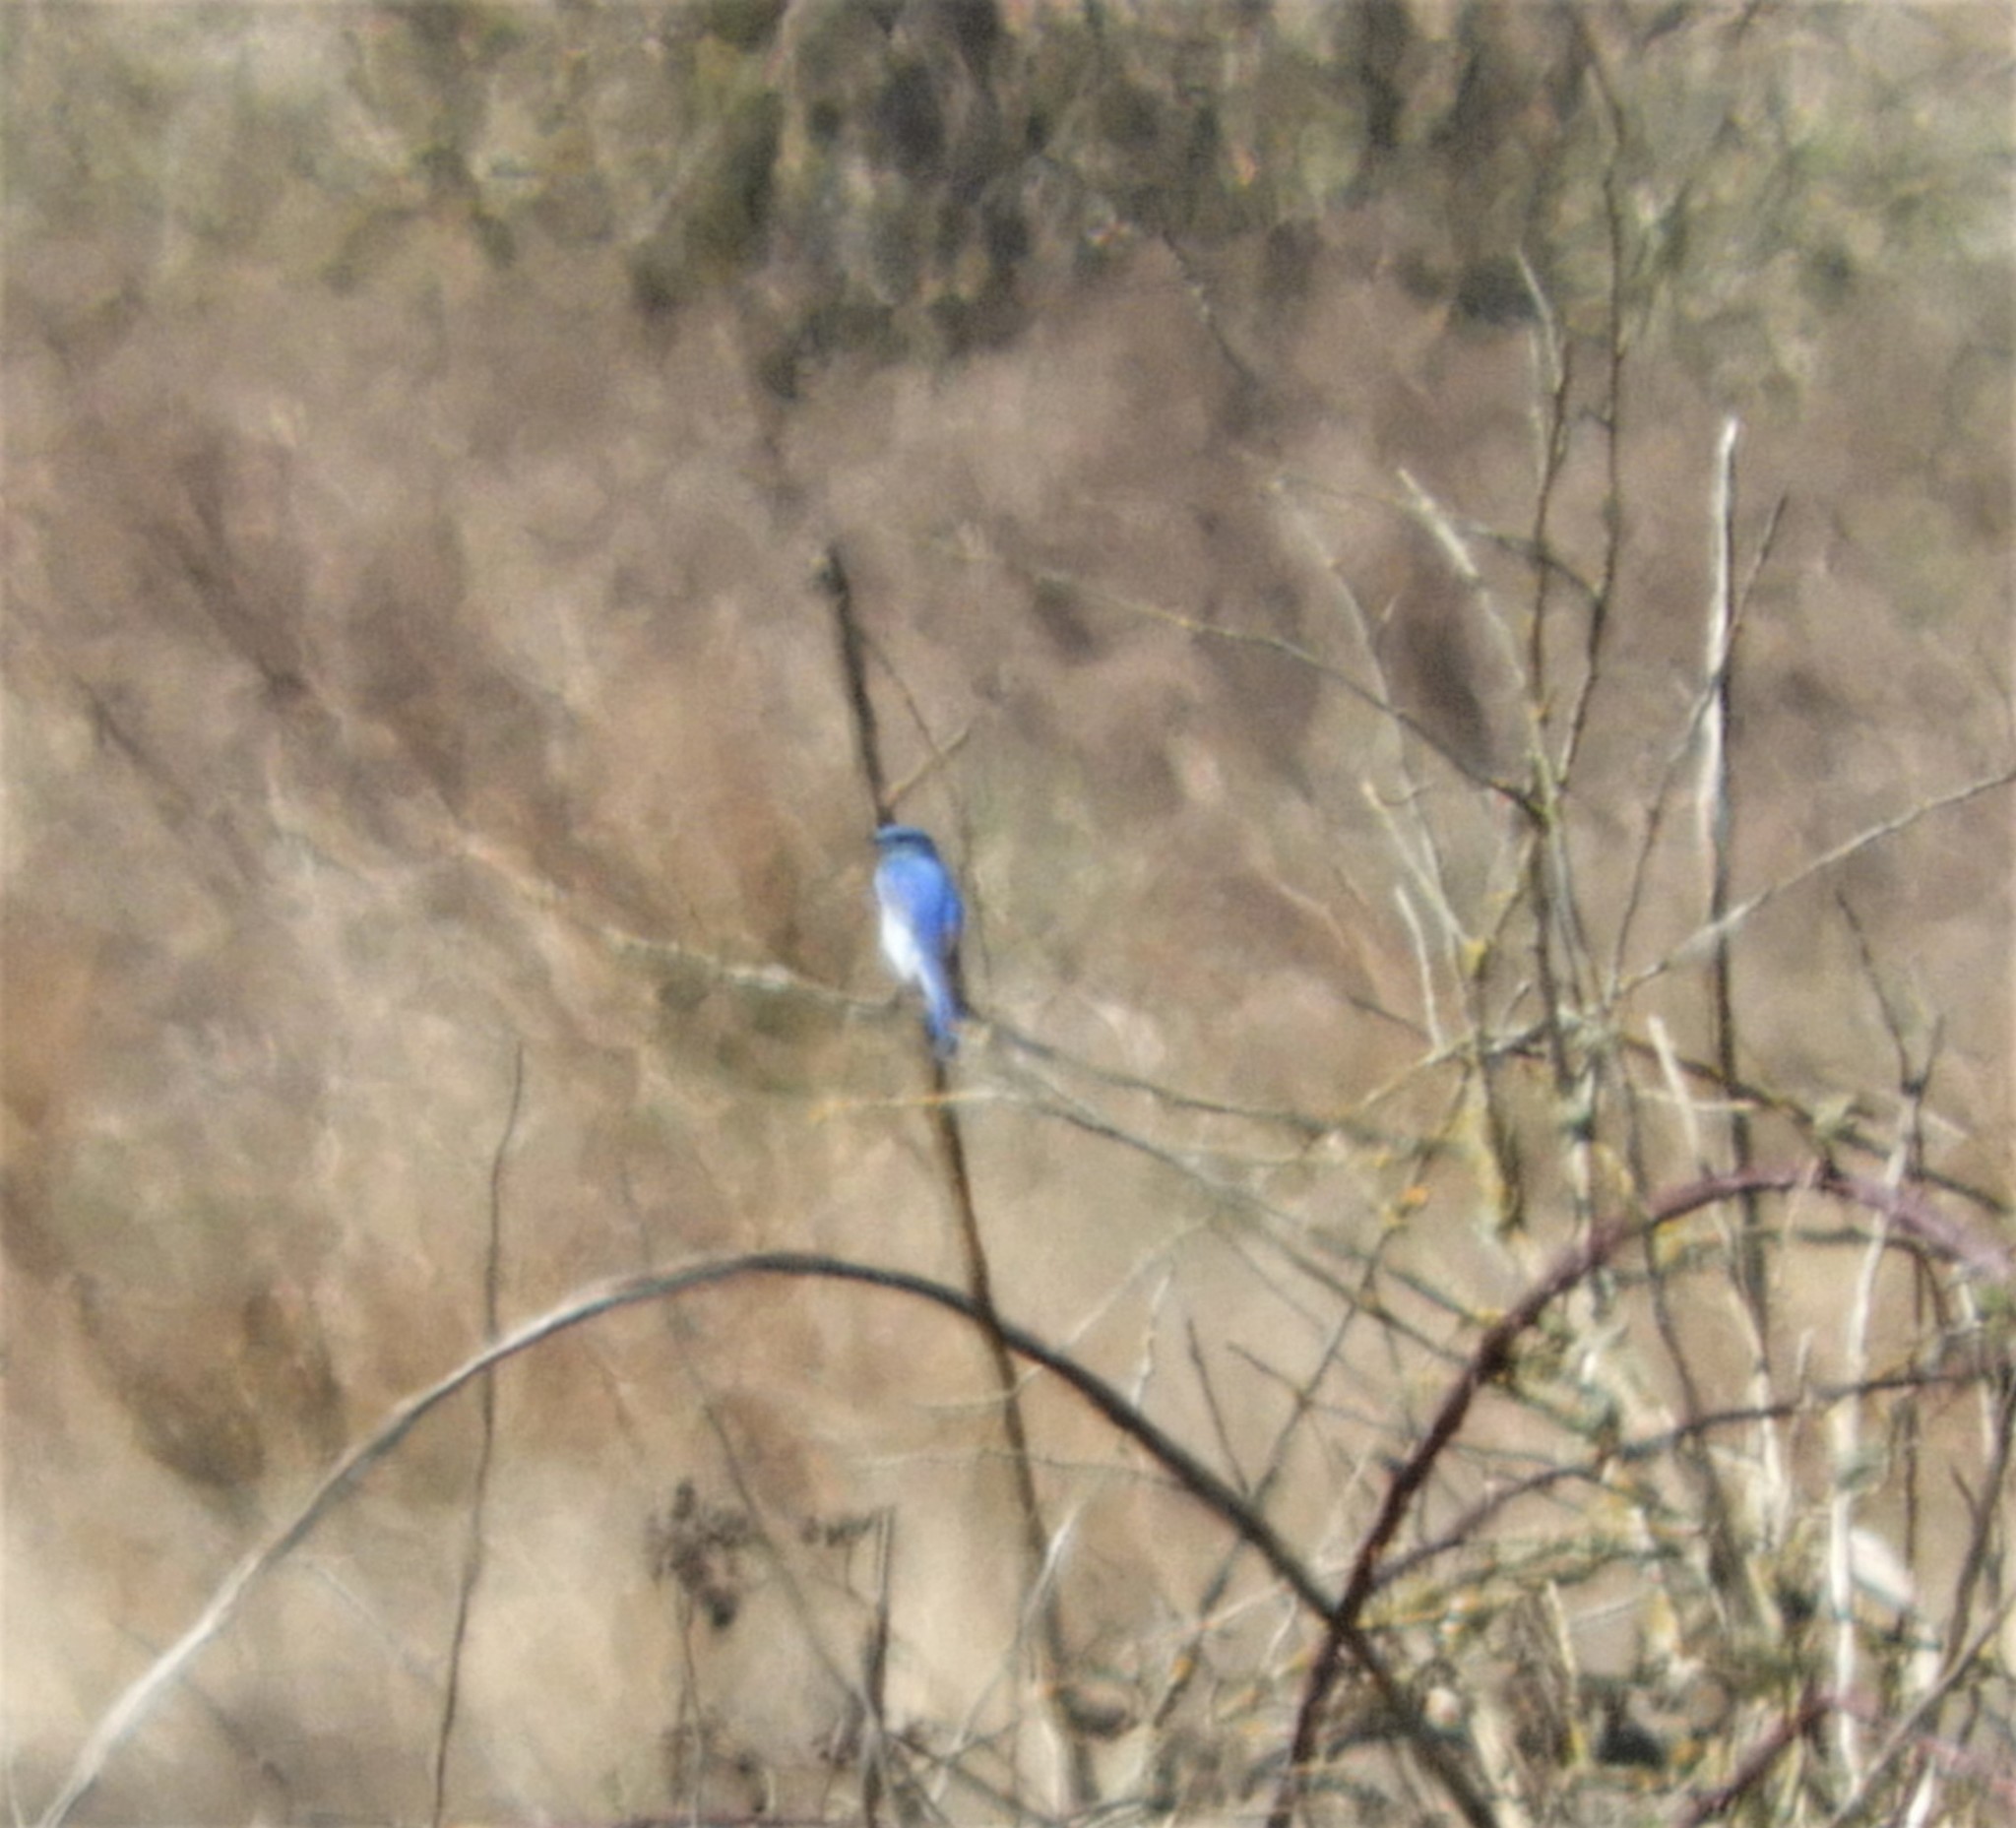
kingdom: Animalia
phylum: Chordata
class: Aves
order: Passeriformes
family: Turdidae
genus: Sialia
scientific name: Sialia currucoides
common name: Mountain bluebird
